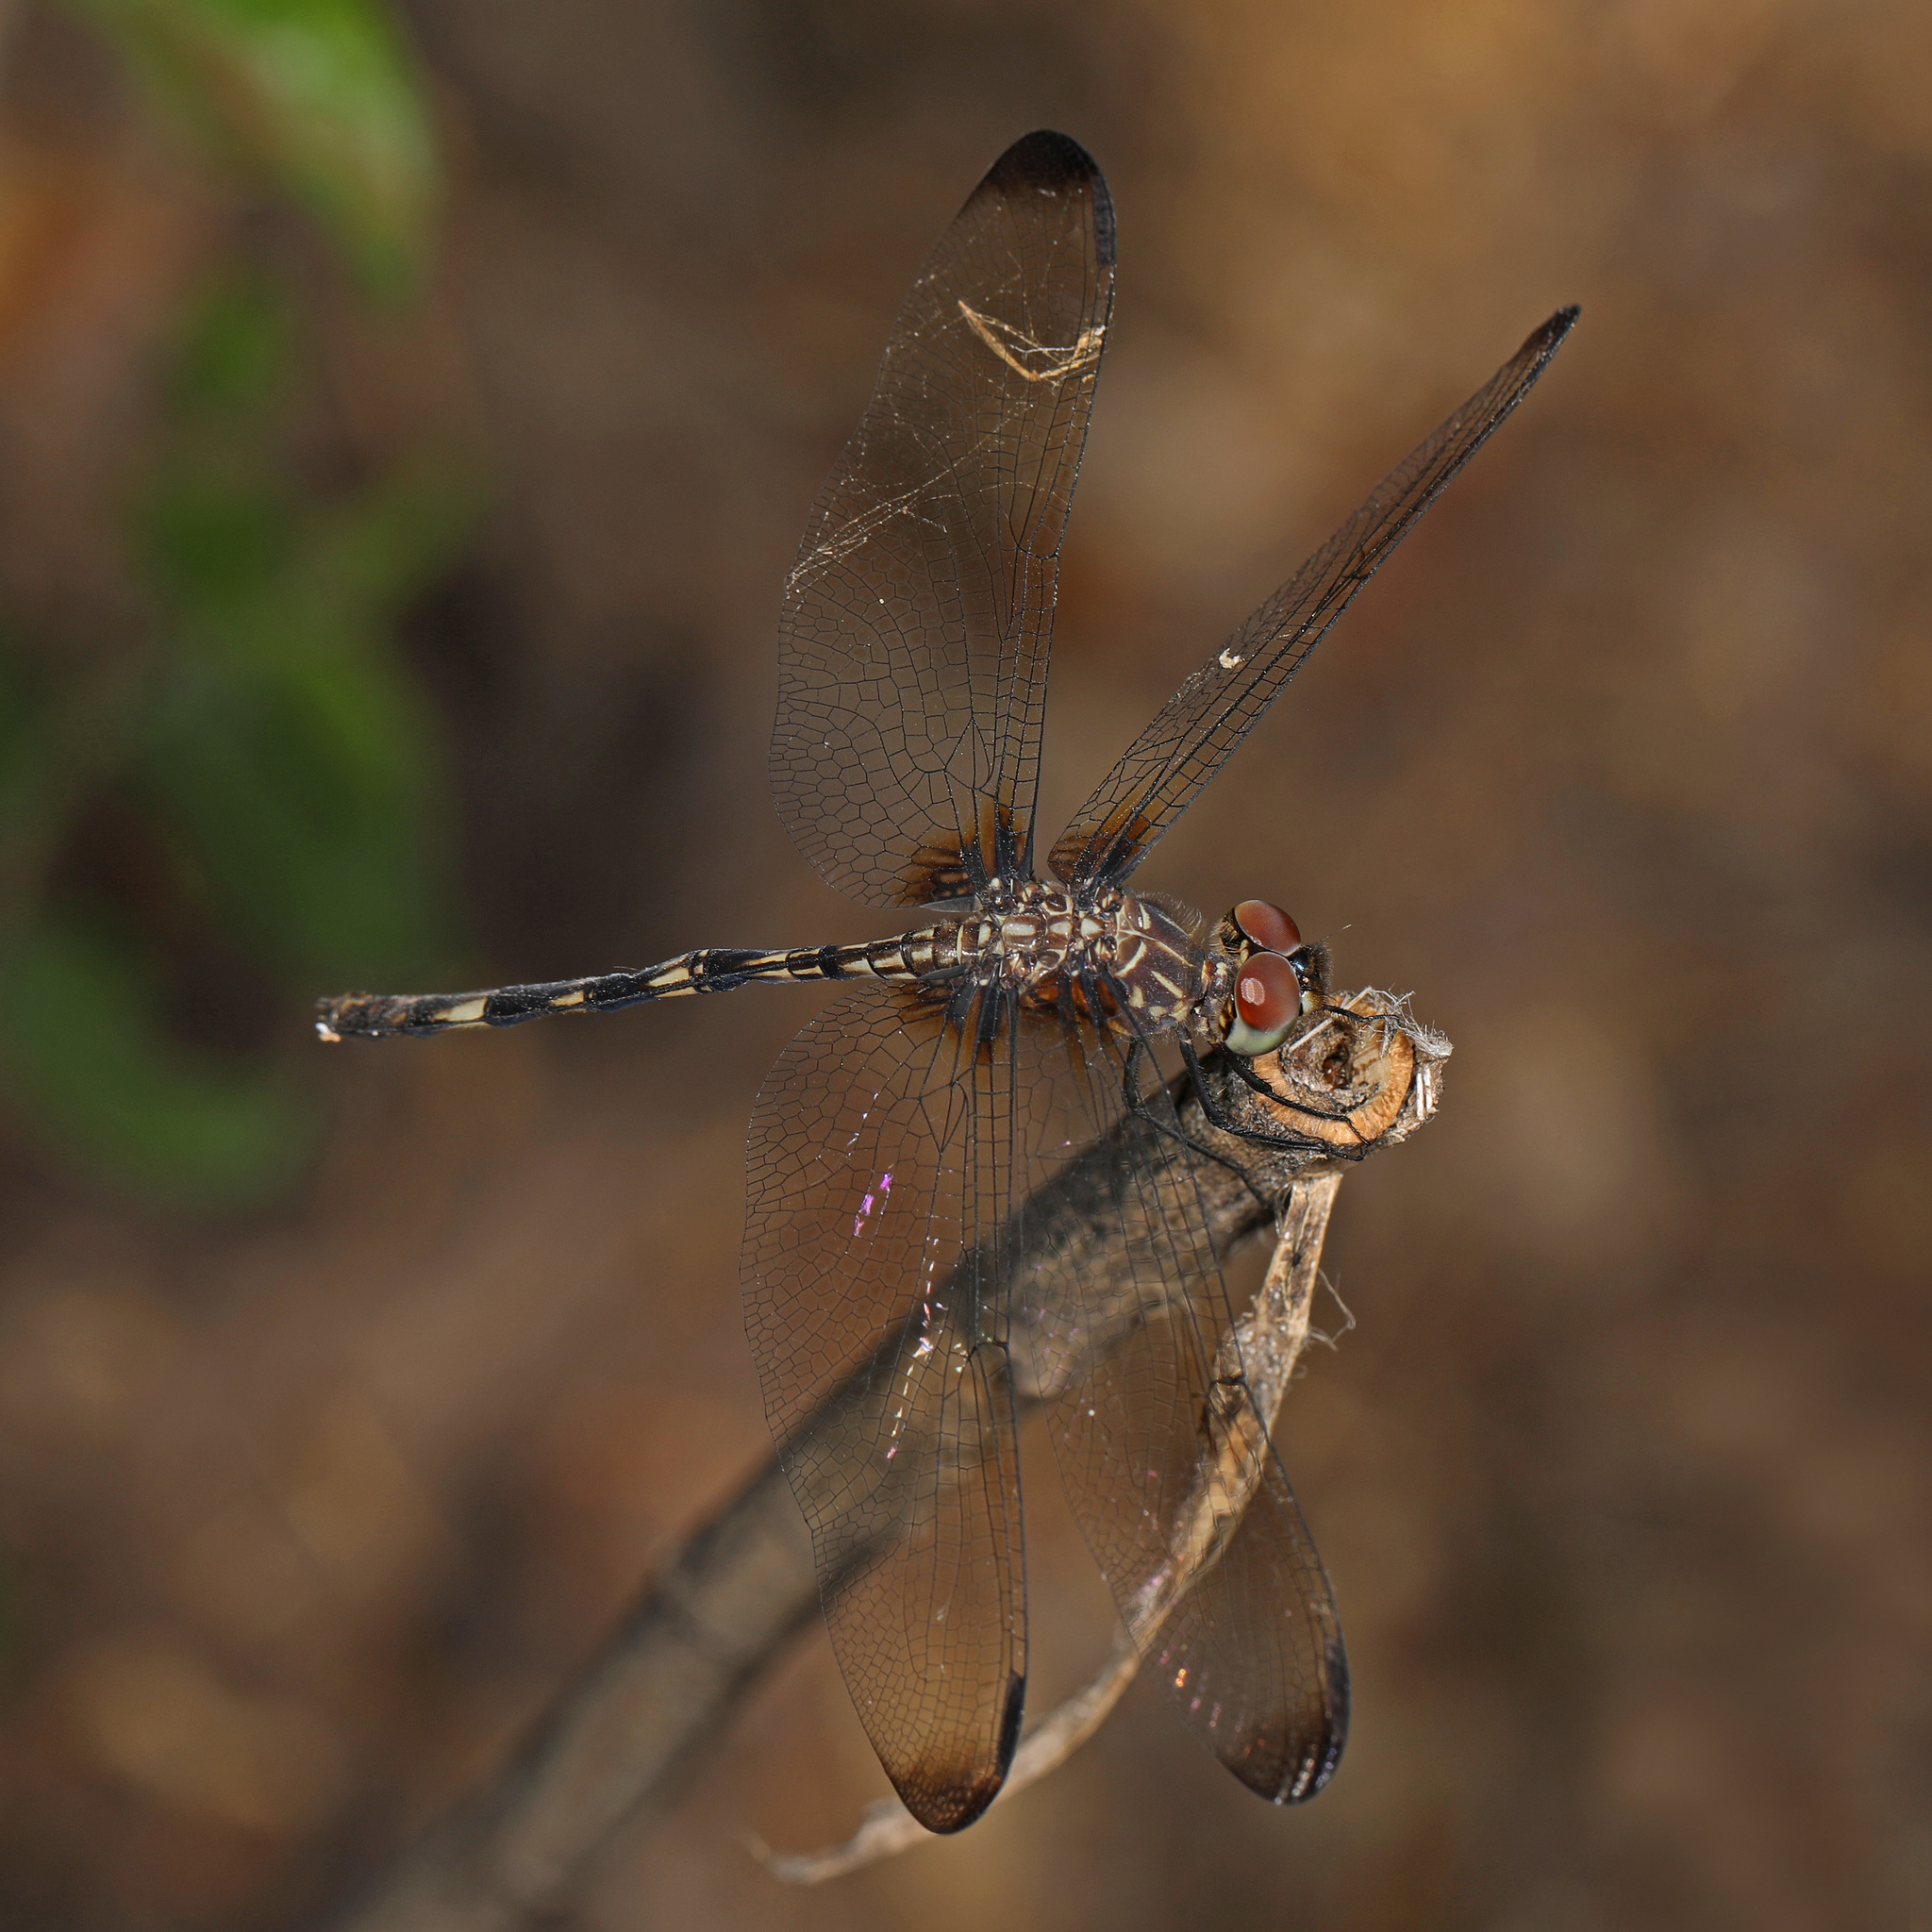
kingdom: Animalia
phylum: Arthropoda
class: Insecta
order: Odonata
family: Libellulidae
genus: Dythemis
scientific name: Dythemis velox
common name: Swift setwing
